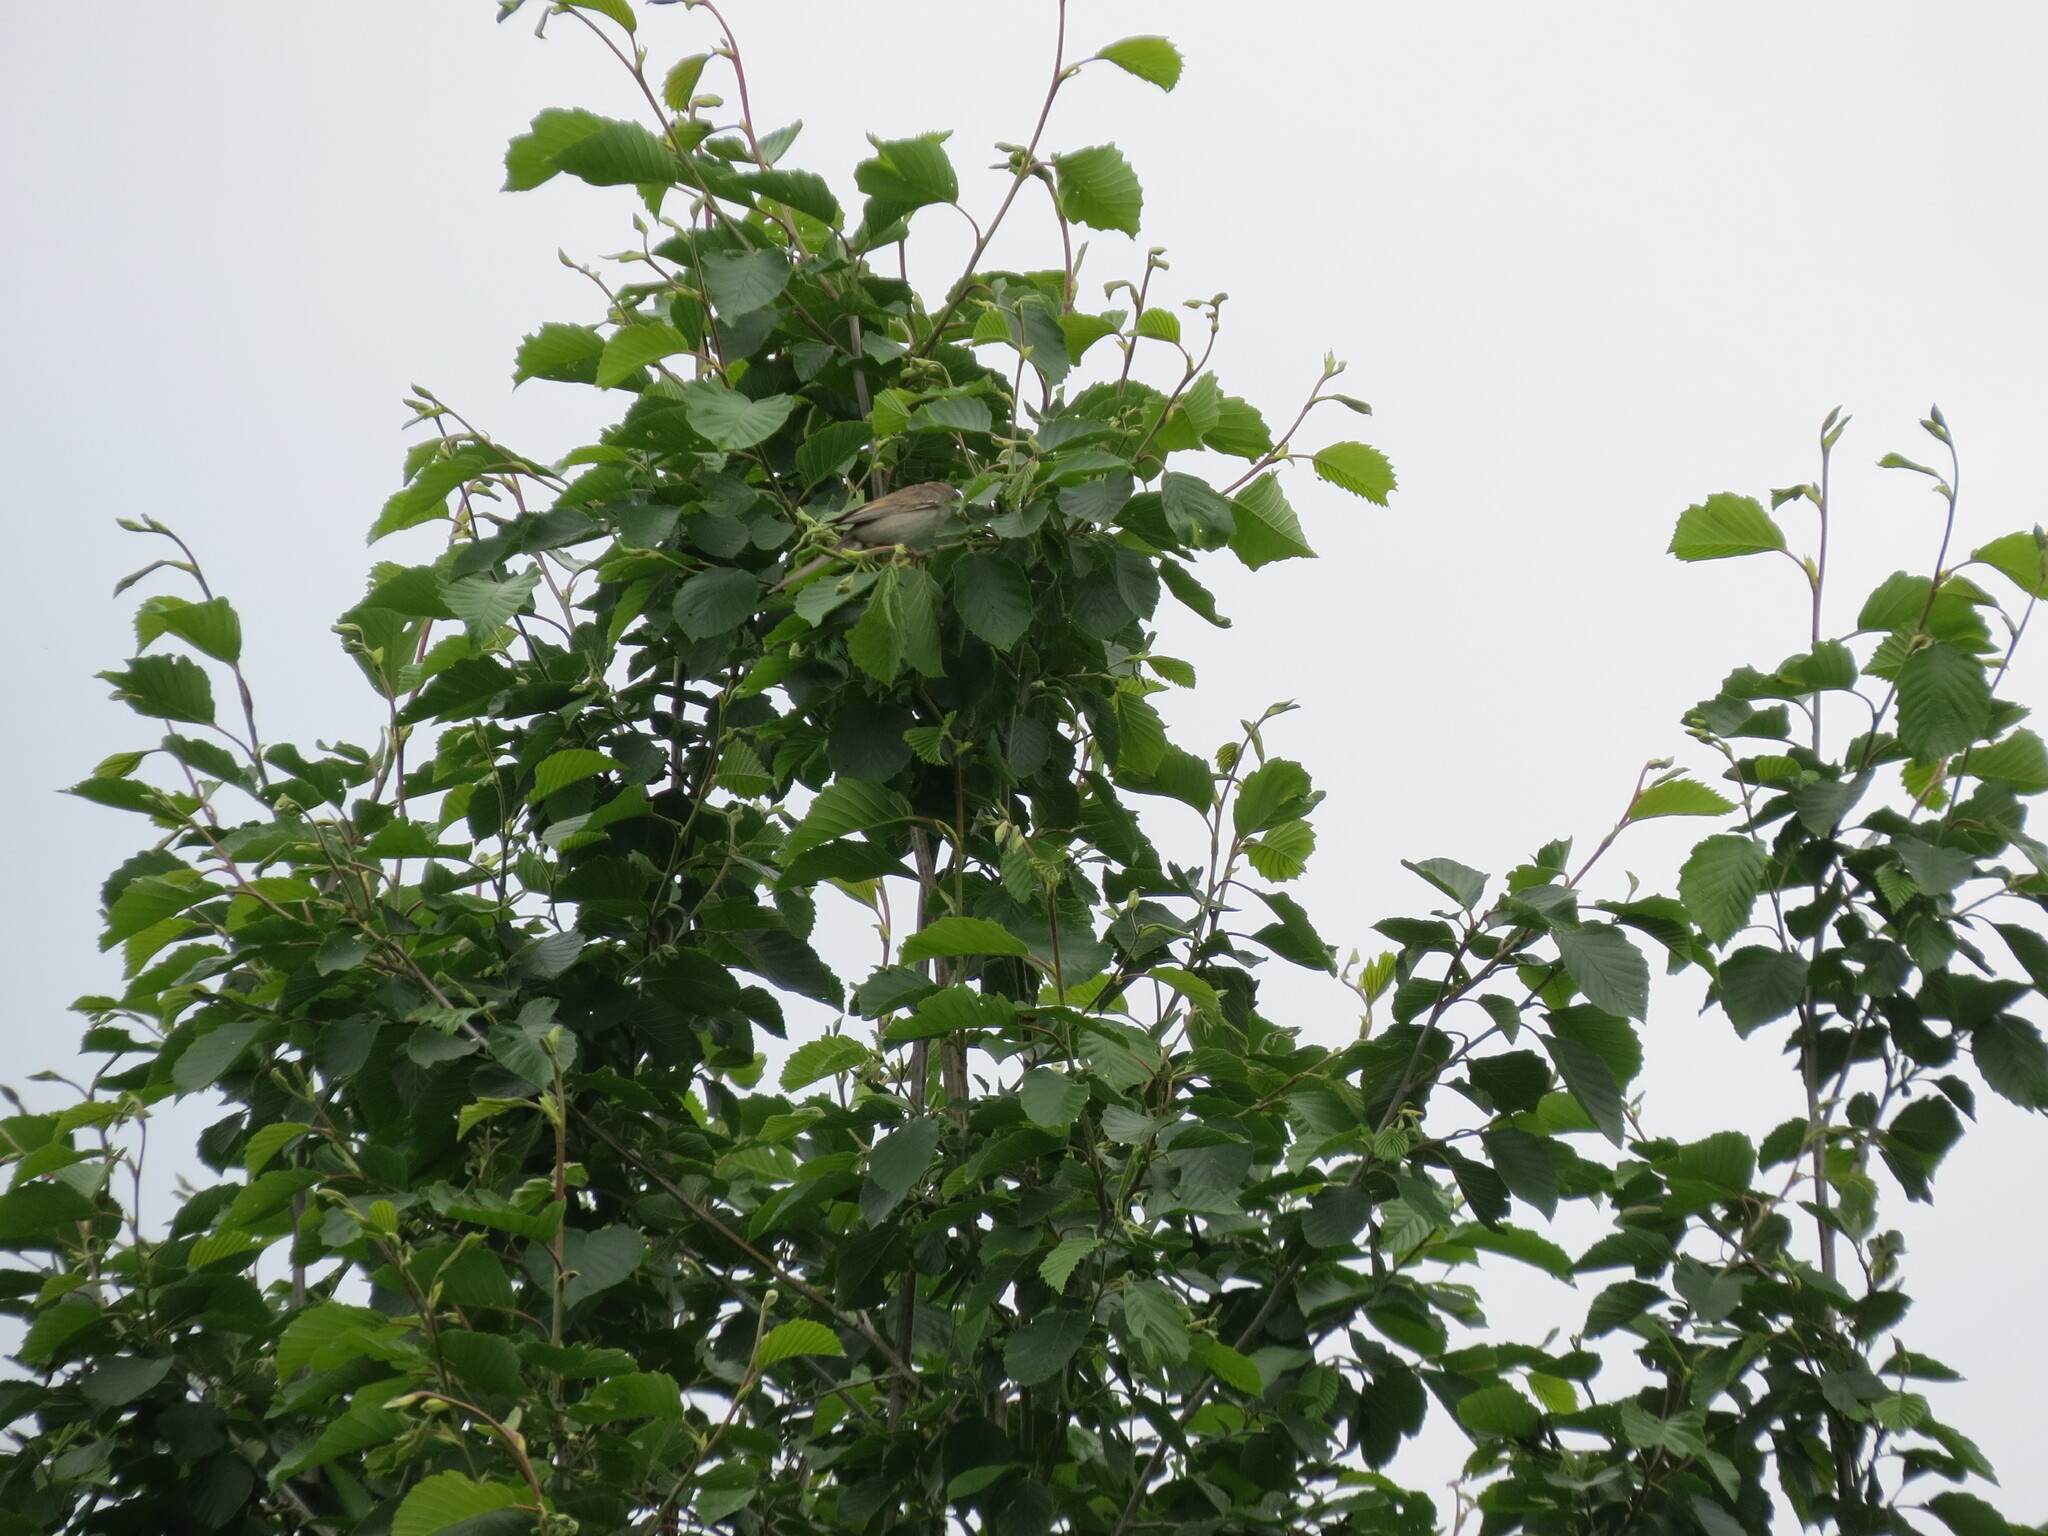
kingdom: Animalia
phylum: Chordata
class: Aves
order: Passeriformes
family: Sylviidae
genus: Sylvia
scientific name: Sylvia communis
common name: Common whitethroat
